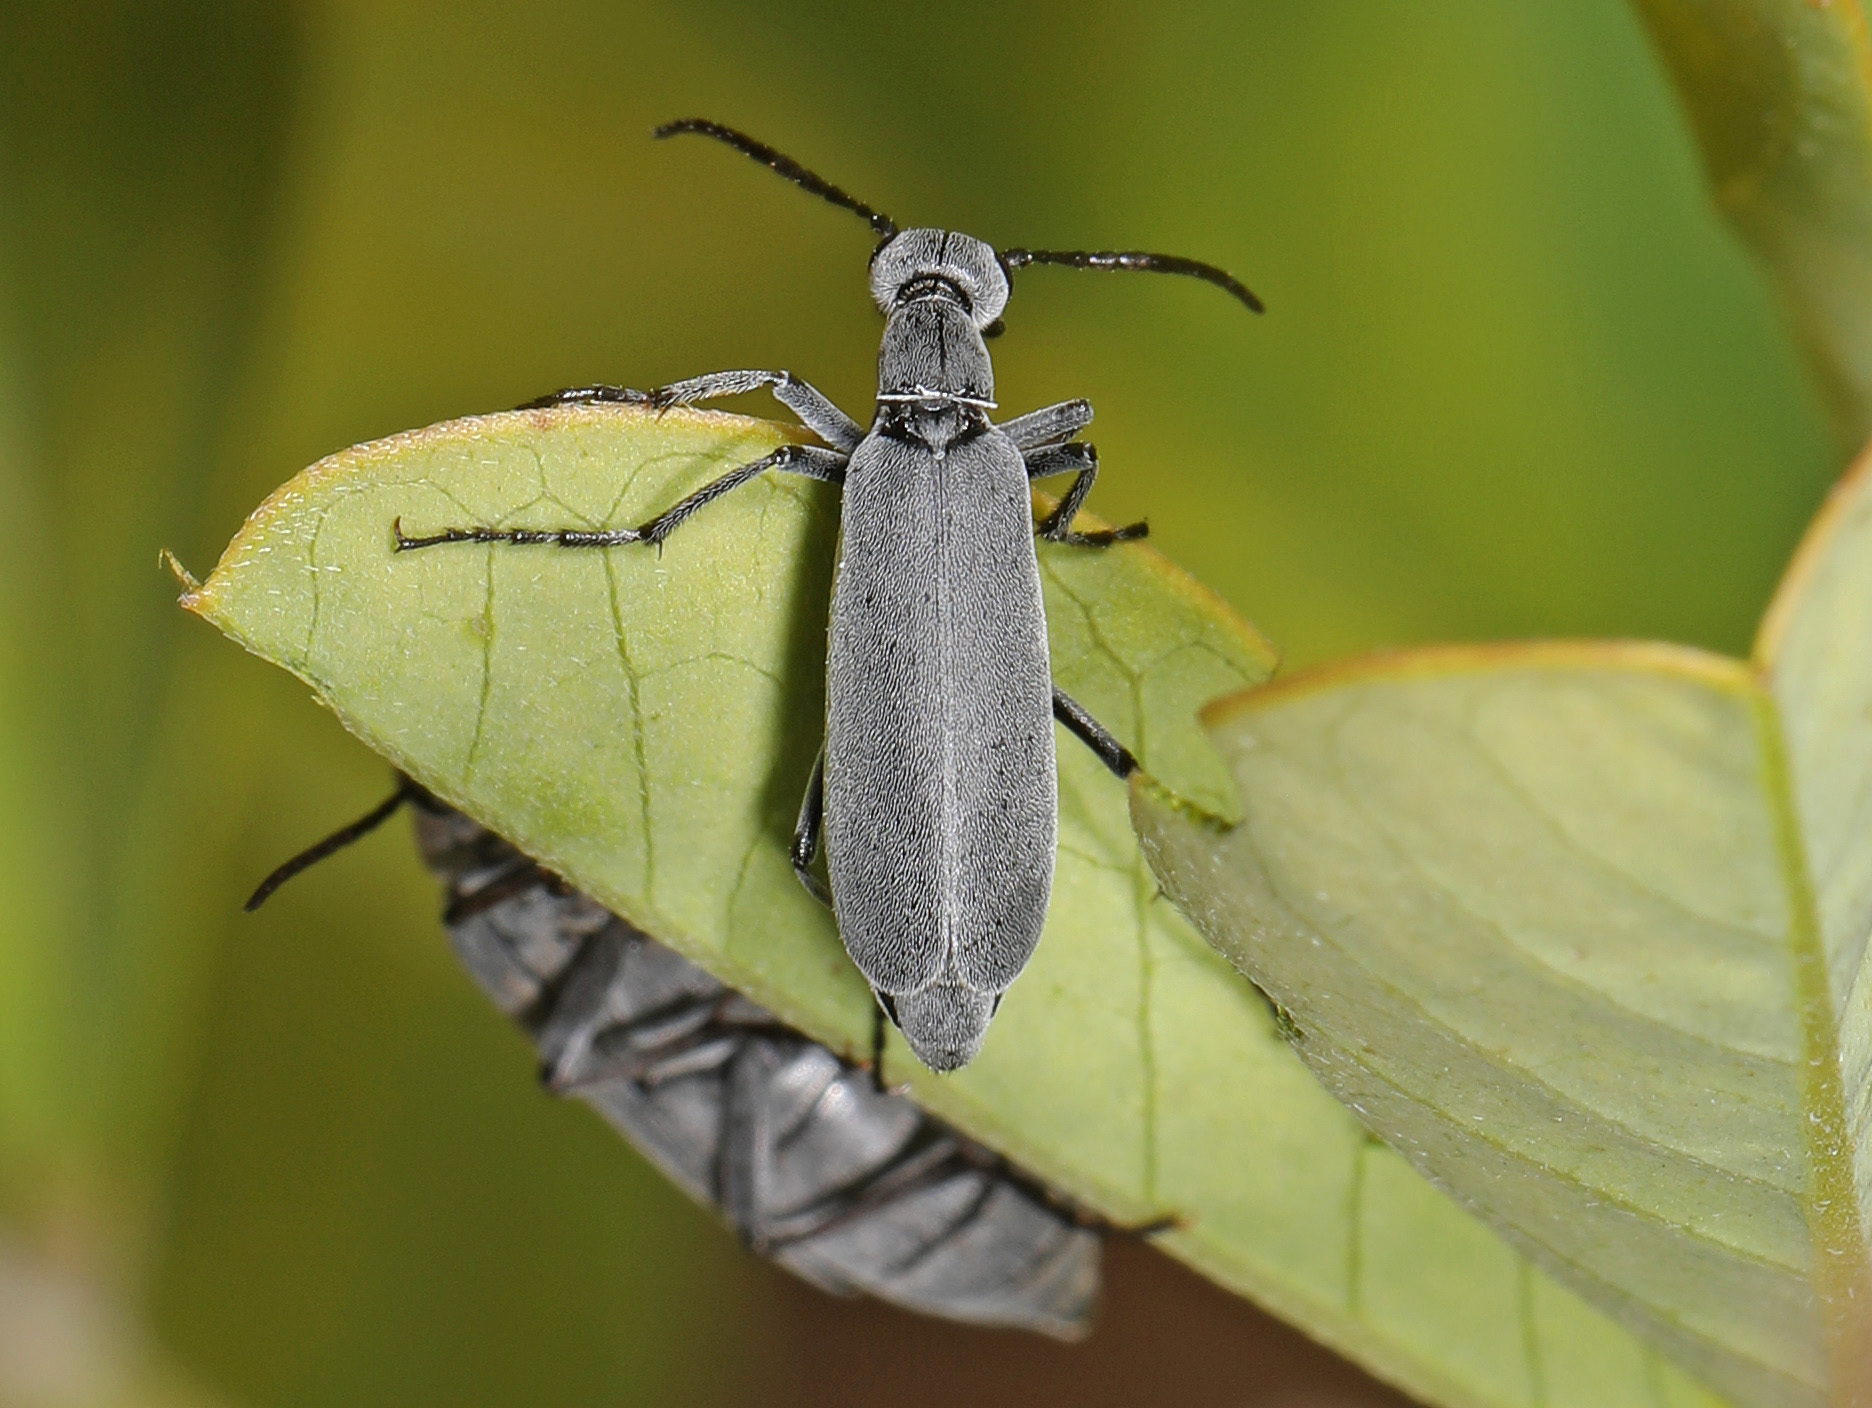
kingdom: Animalia
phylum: Arthropoda
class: Insecta
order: Coleoptera
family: Meloidae
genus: Epicauta
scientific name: Epicauta floridensis
